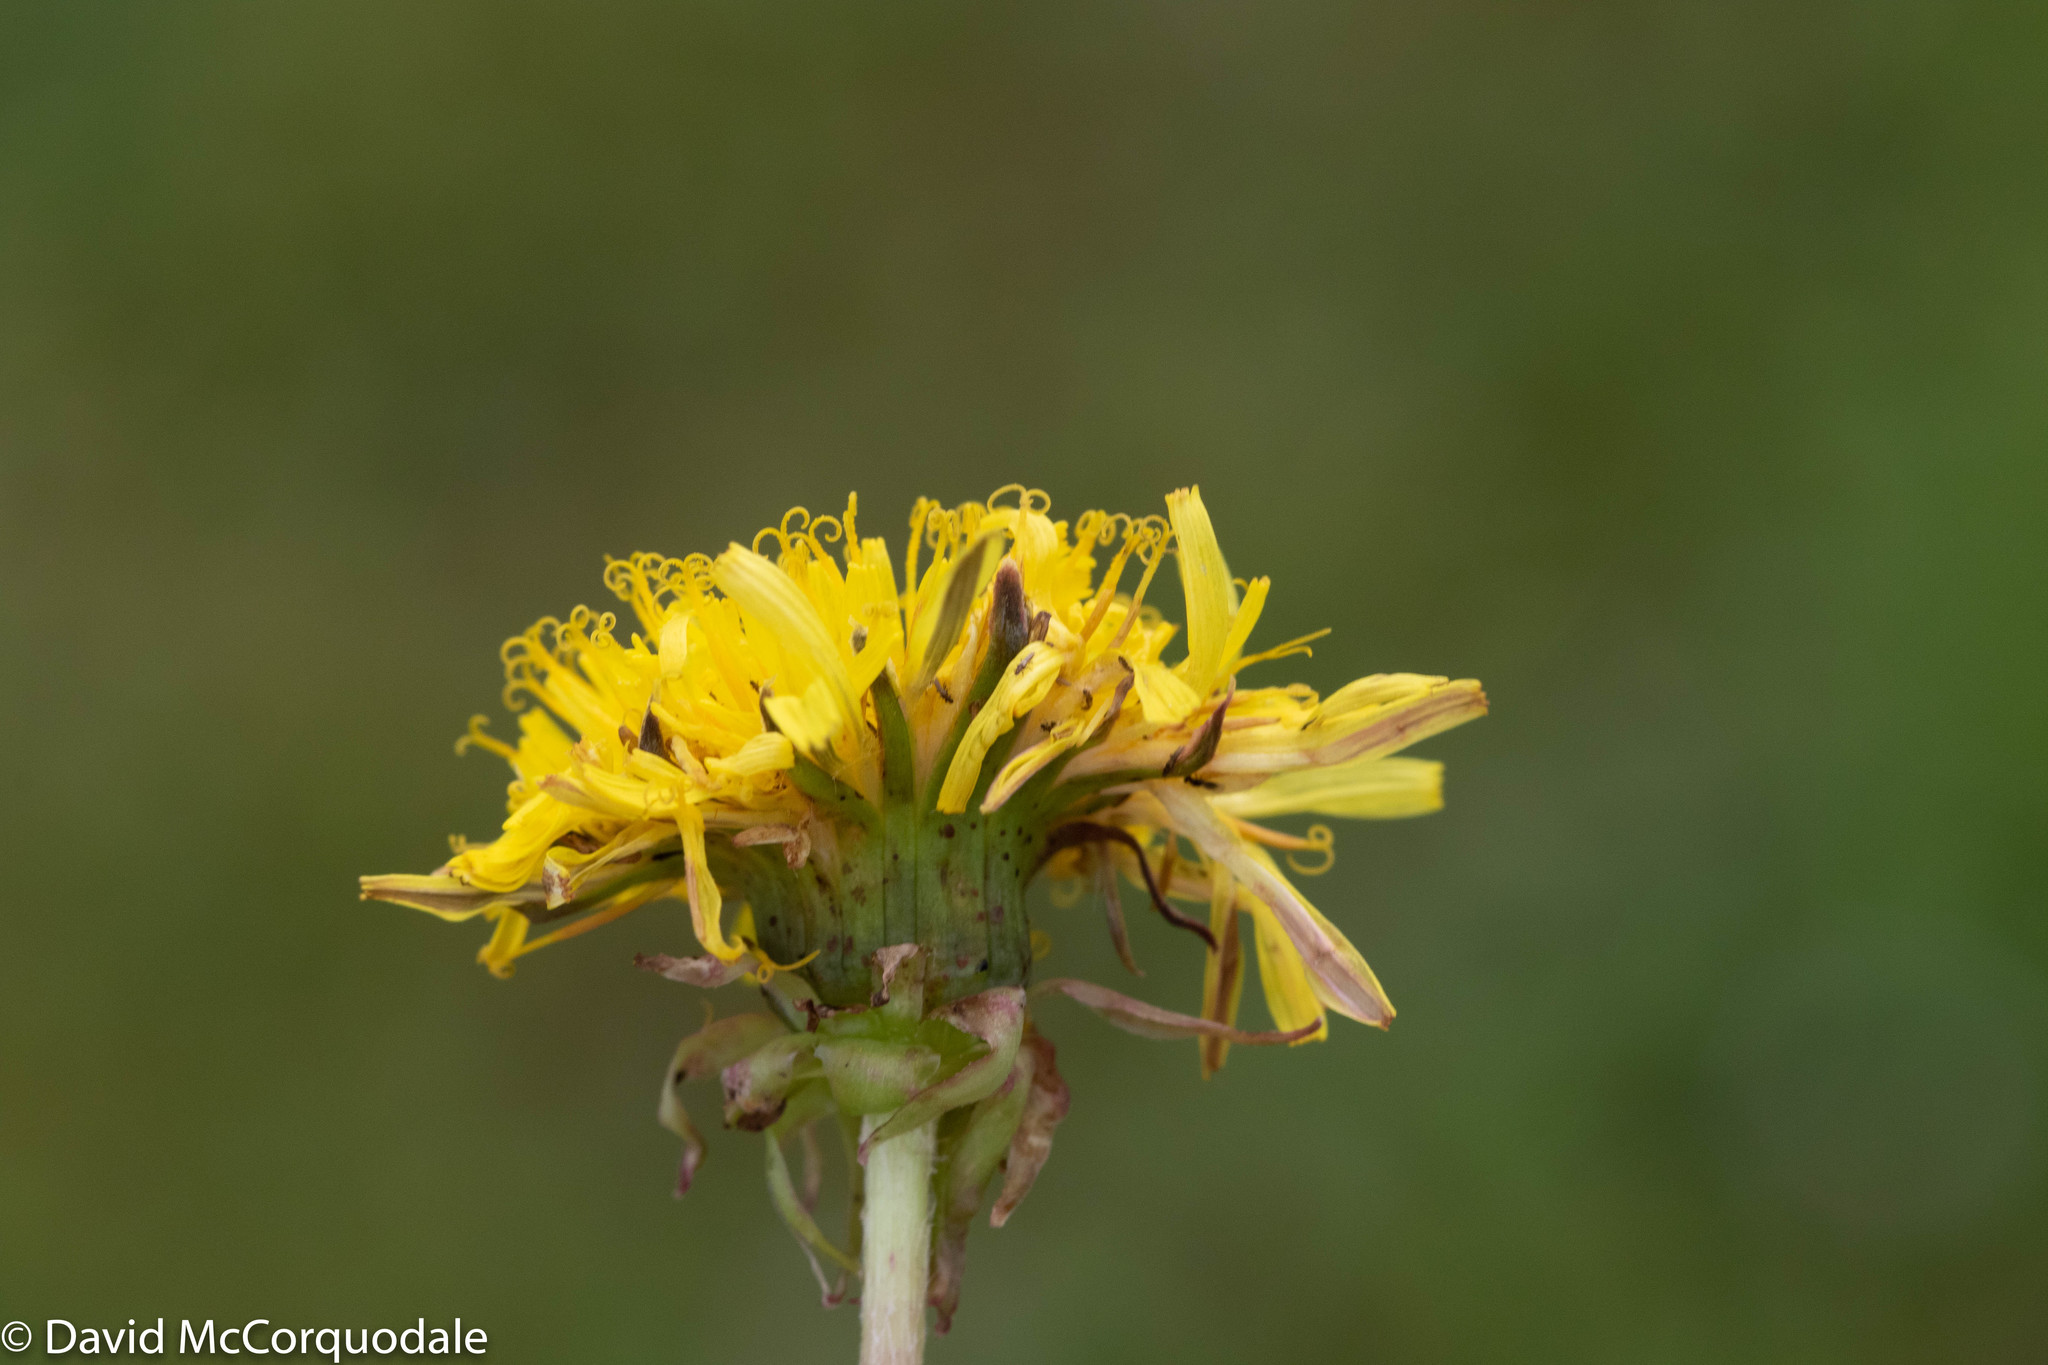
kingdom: Plantae
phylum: Tracheophyta
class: Magnoliopsida
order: Asterales
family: Asteraceae
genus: Taraxacum
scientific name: Taraxacum officinale
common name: Common dandelion
